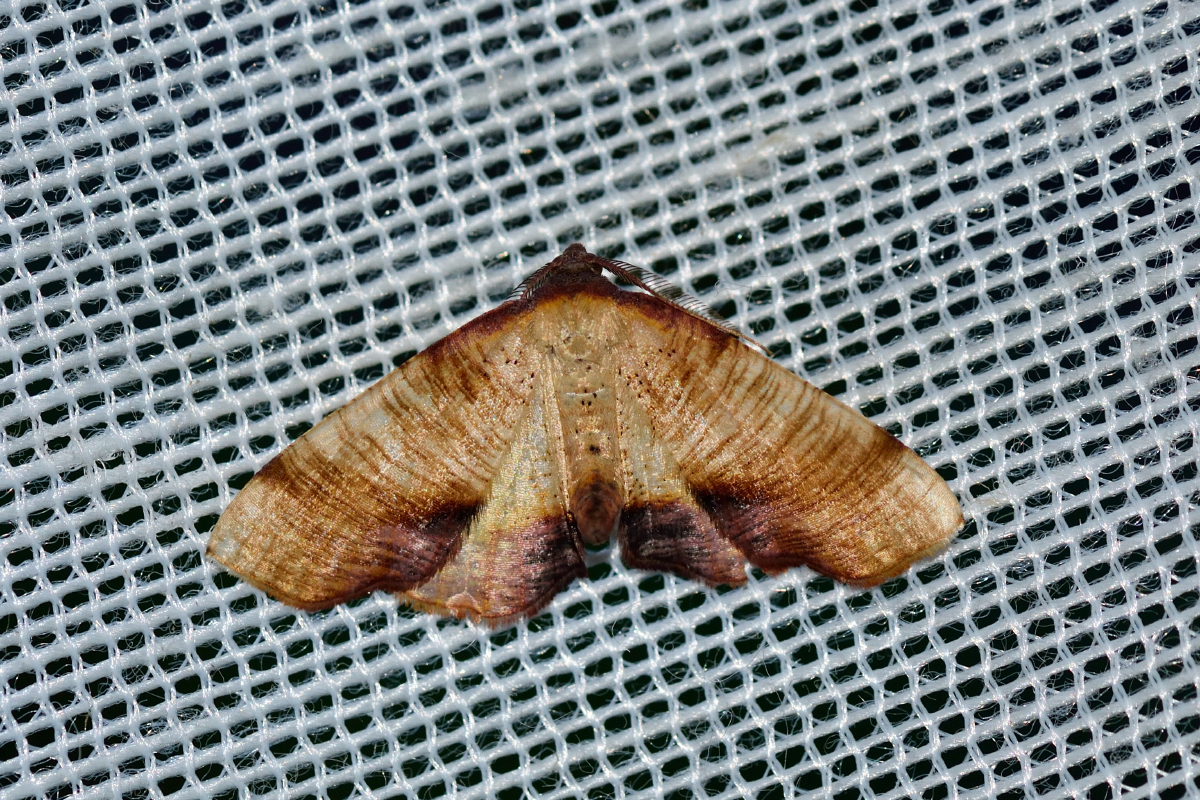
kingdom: Animalia
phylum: Arthropoda
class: Insecta
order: Lepidoptera
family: Geometridae
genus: Plagodis
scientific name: Plagodis dolabraria
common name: Scorched wing
